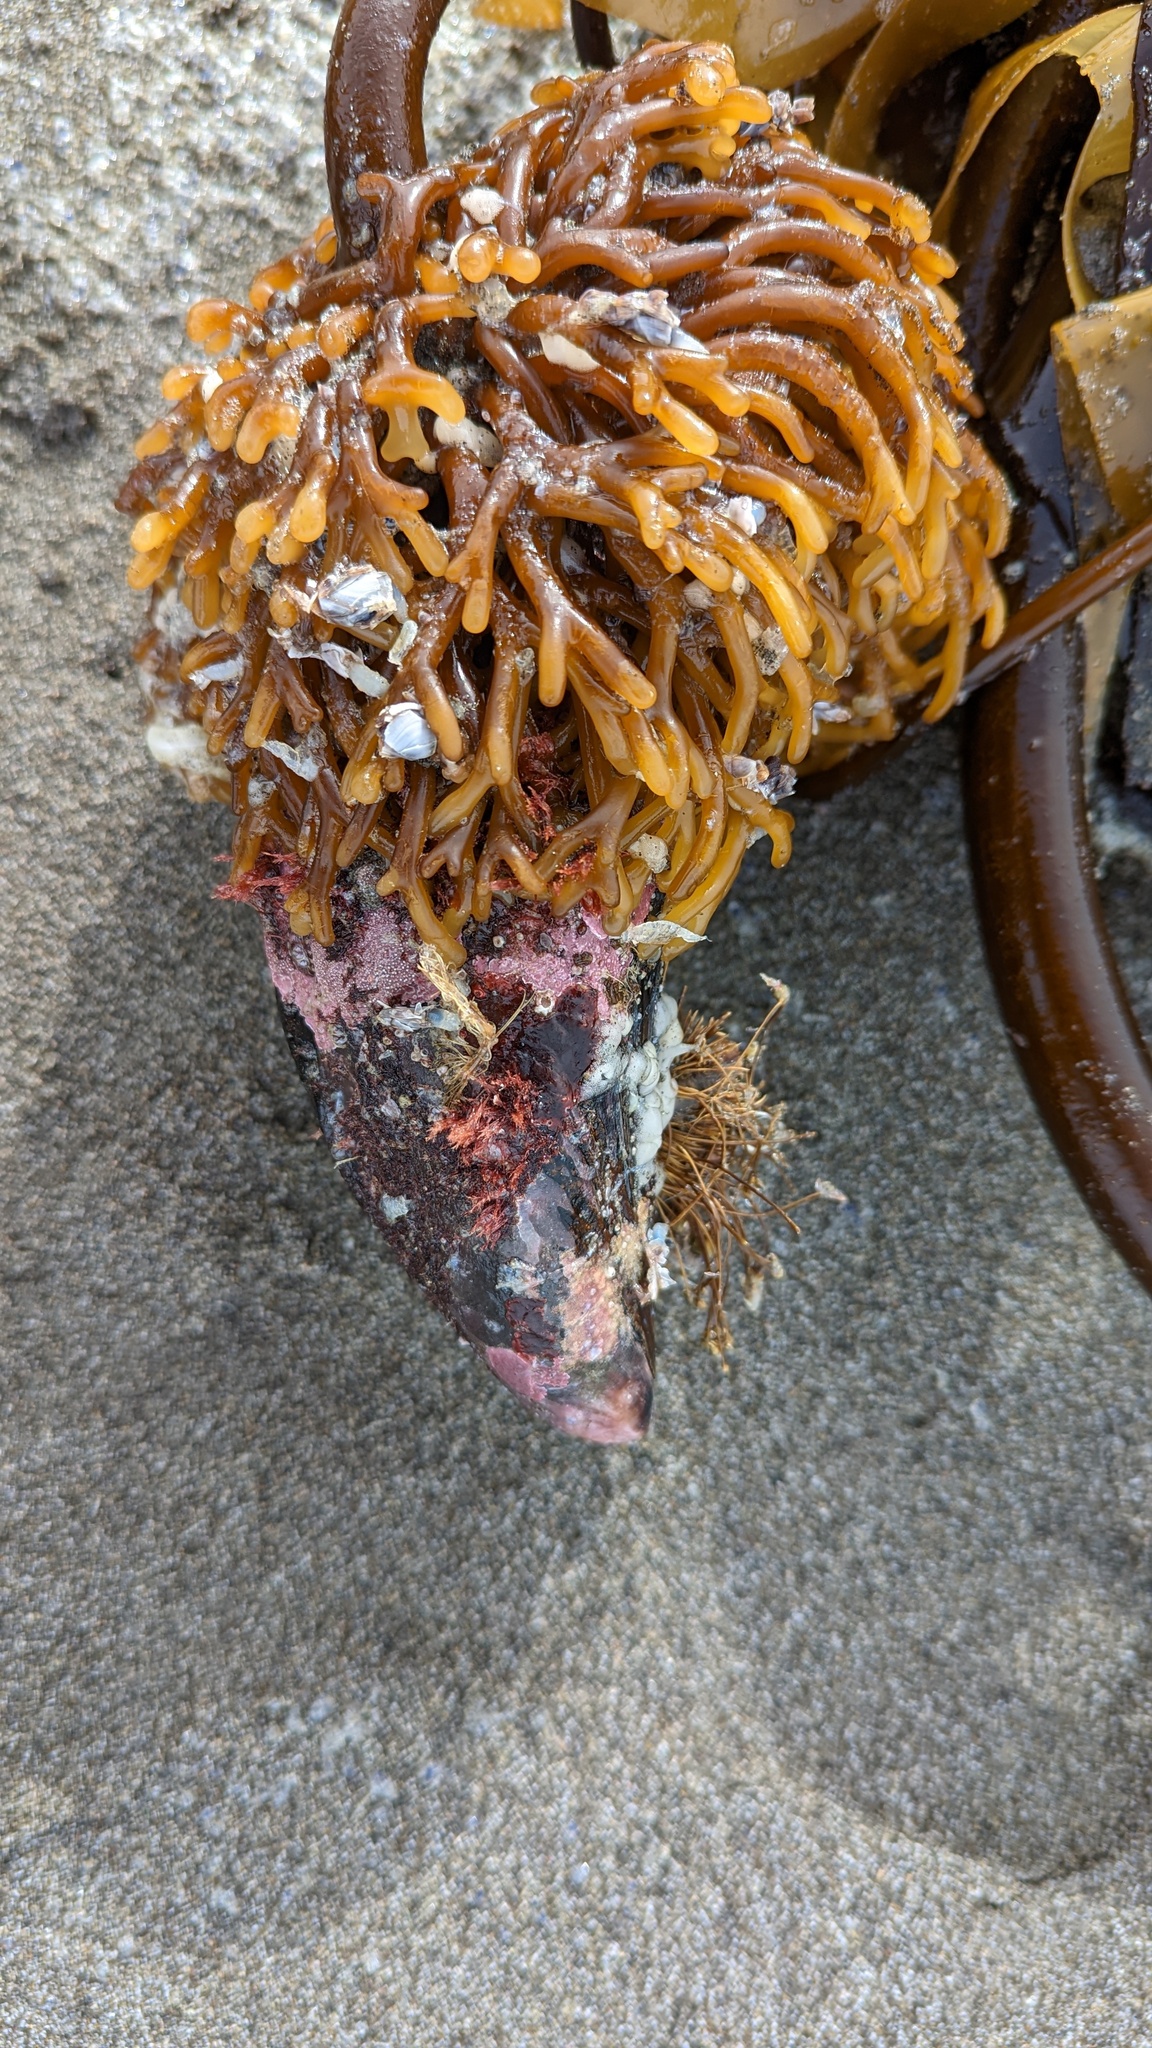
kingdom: Animalia
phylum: Mollusca
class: Bivalvia
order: Mytilida
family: Mytilidae
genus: Mytilus
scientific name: Mytilus californianus
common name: California mussel
